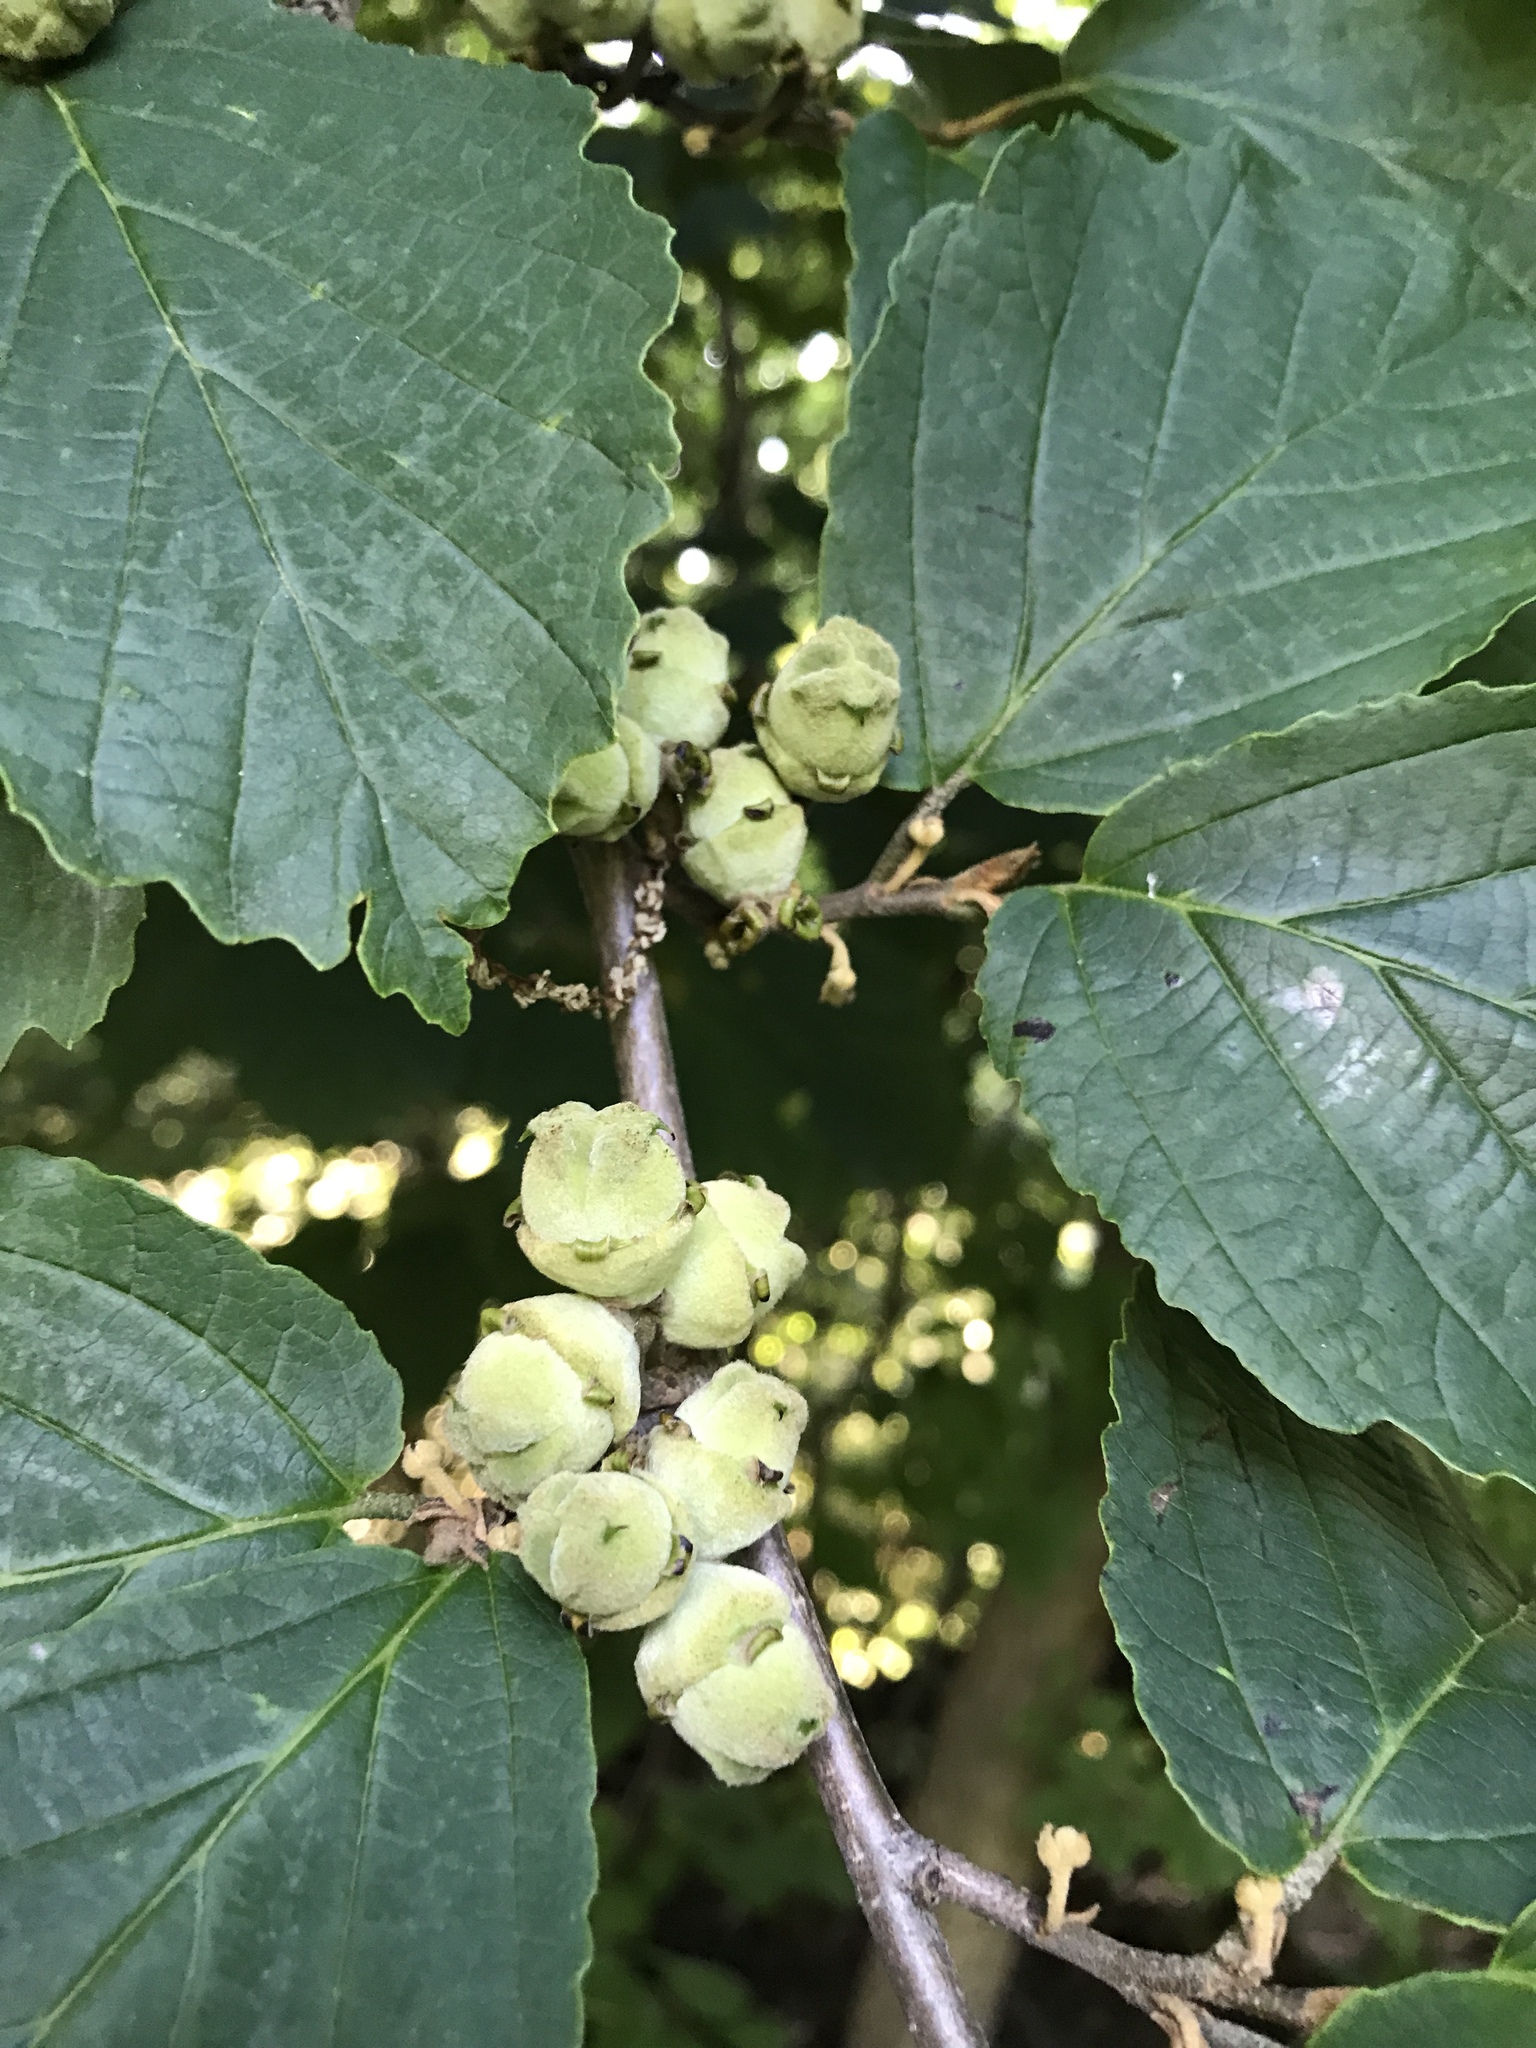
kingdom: Plantae
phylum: Tracheophyta
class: Magnoliopsida
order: Saxifragales
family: Hamamelidaceae
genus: Hamamelis
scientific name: Hamamelis virginiana
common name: Witch-hazel
